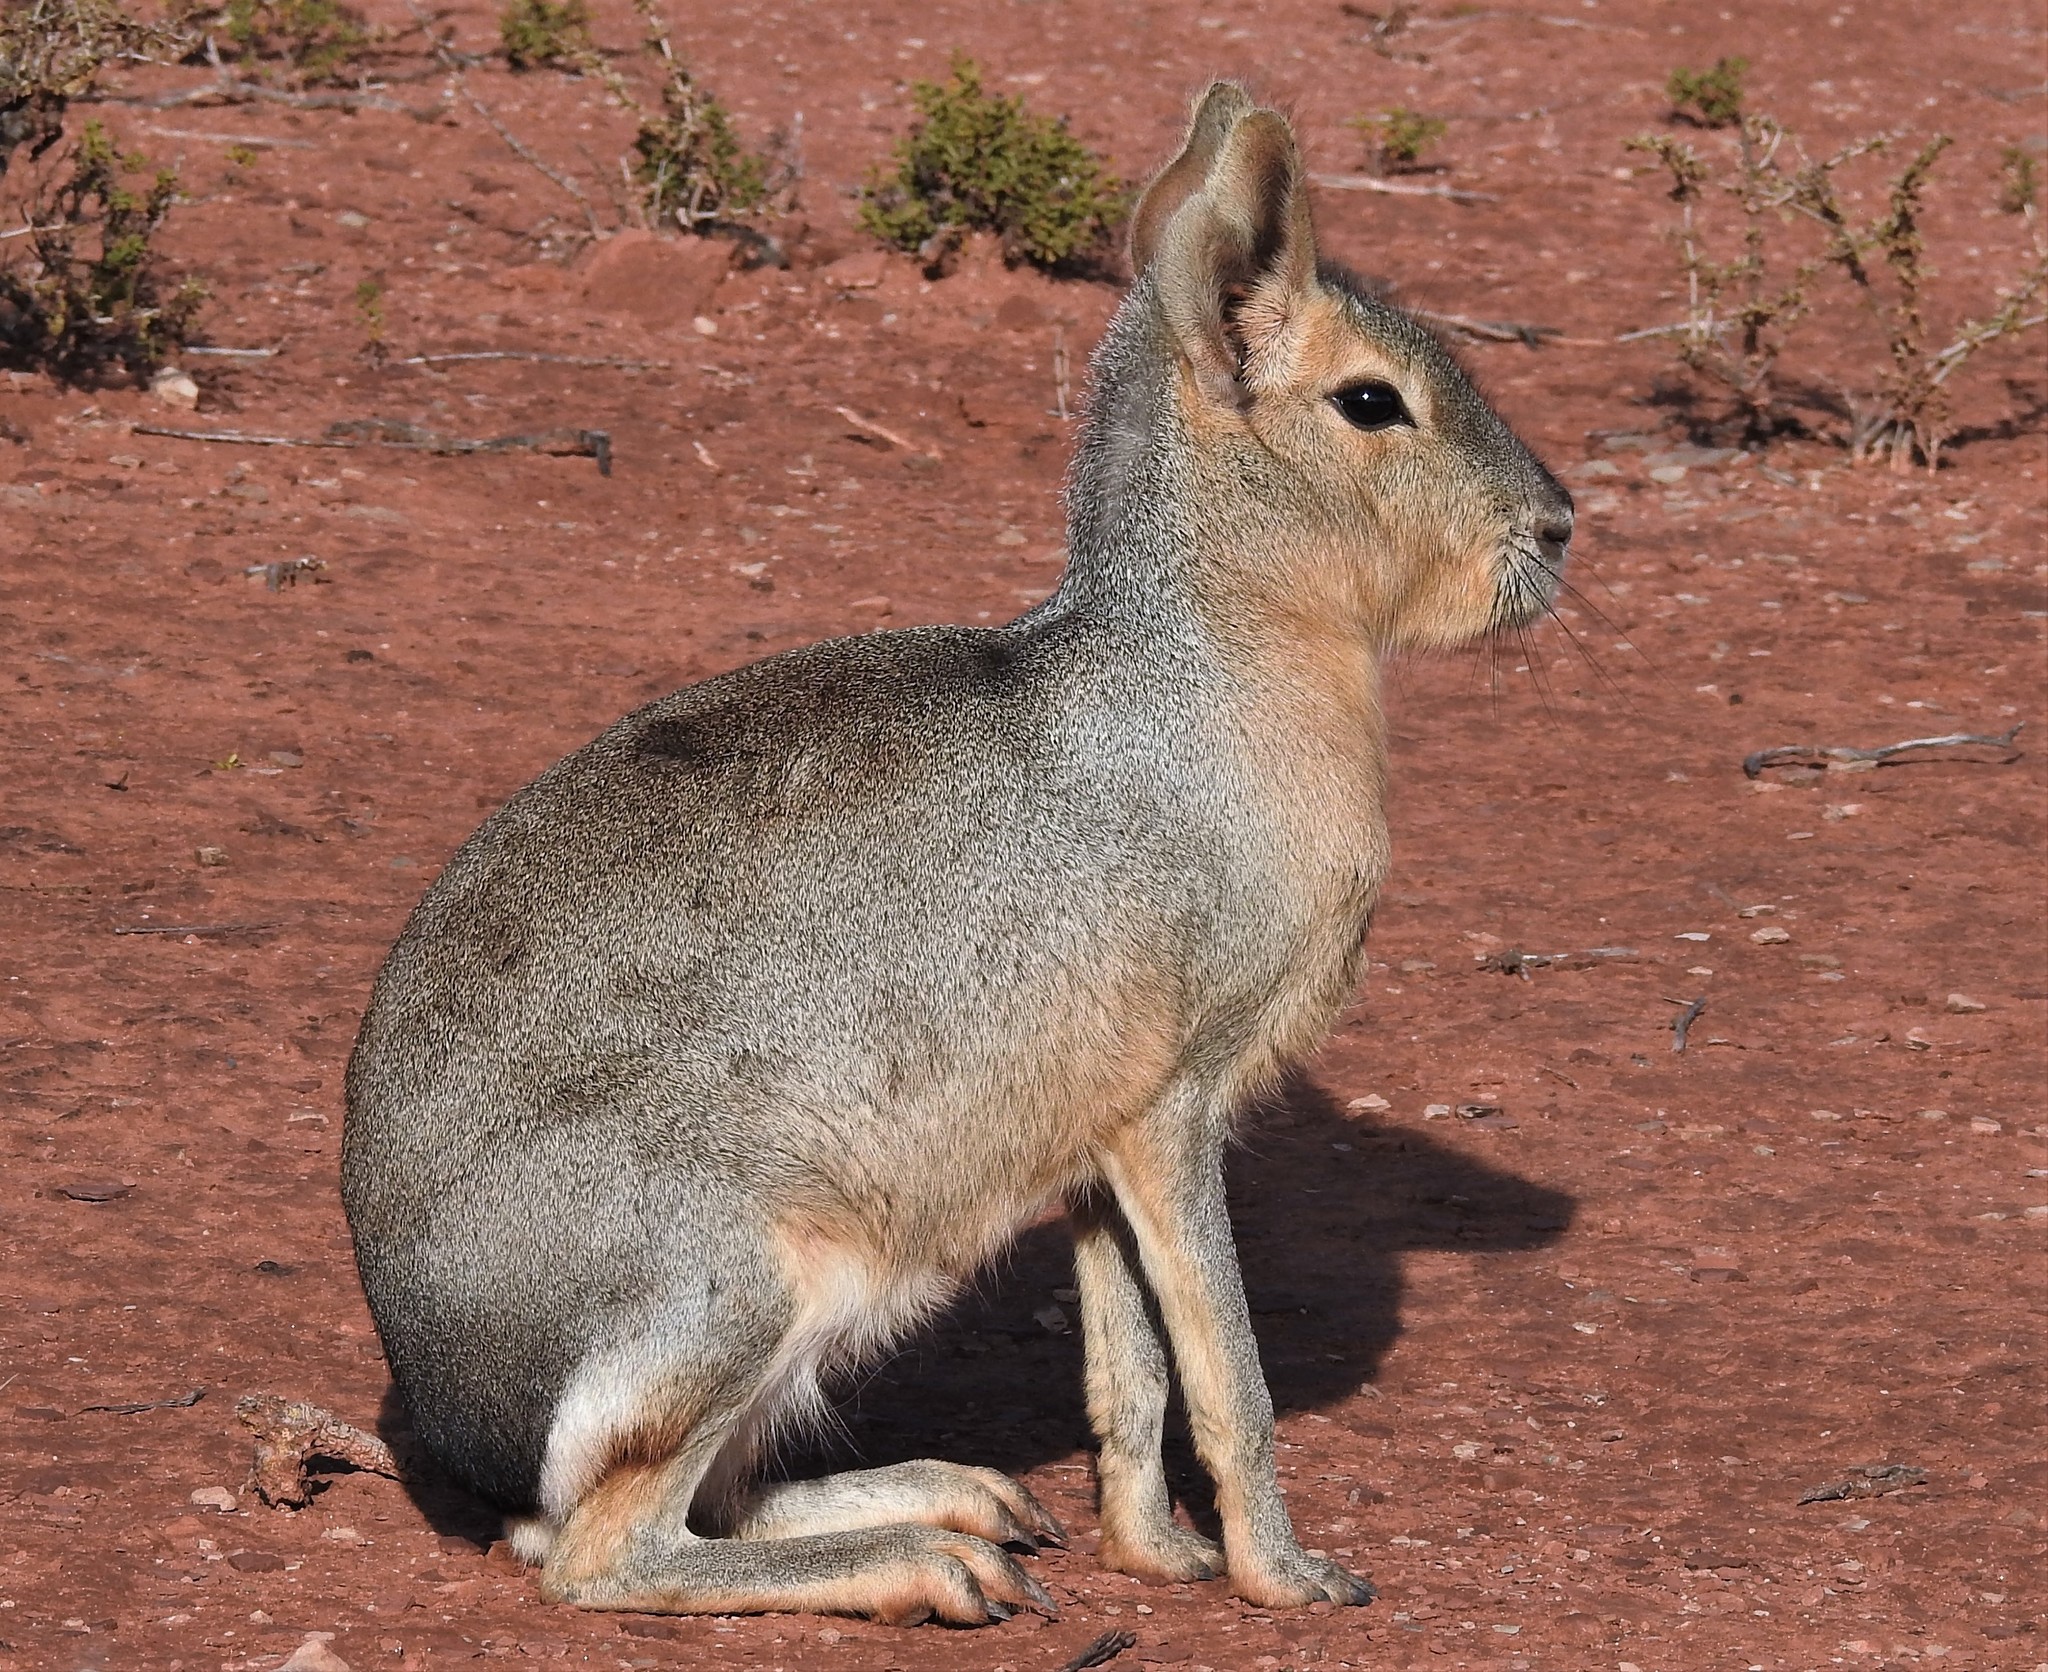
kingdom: Animalia
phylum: Chordata
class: Mammalia
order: Rodentia
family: Caviidae
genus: Dolichotis
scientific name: Dolichotis patagonum
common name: Patagonian mara
